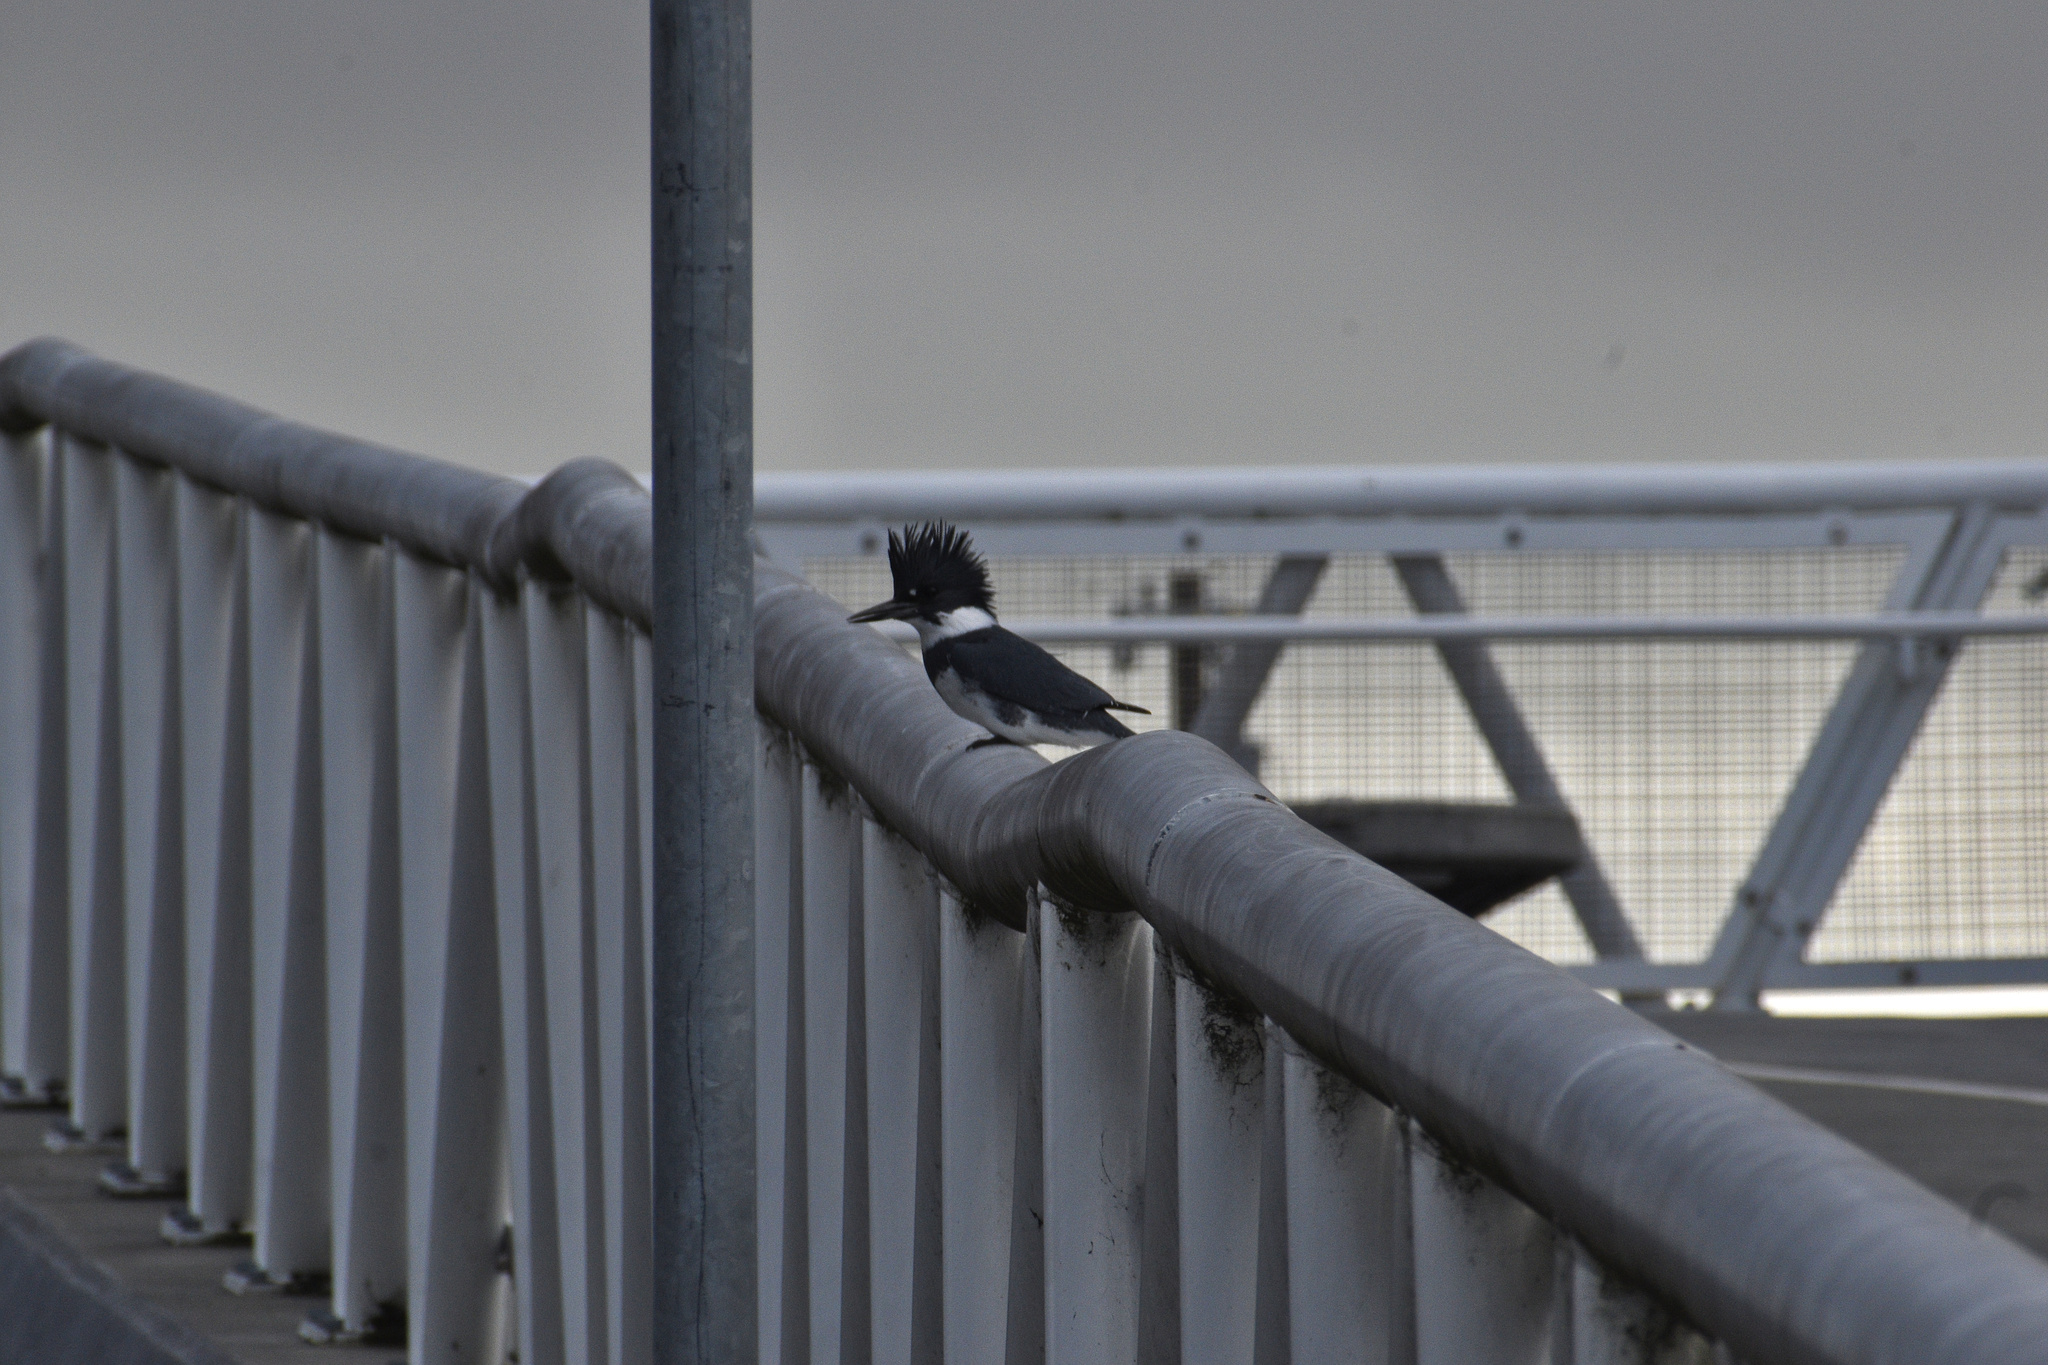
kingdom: Animalia
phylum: Chordata
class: Aves
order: Coraciiformes
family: Alcedinidae
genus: Megaceryle
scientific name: Megaceryle alcyon
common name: Belted kingfisher
